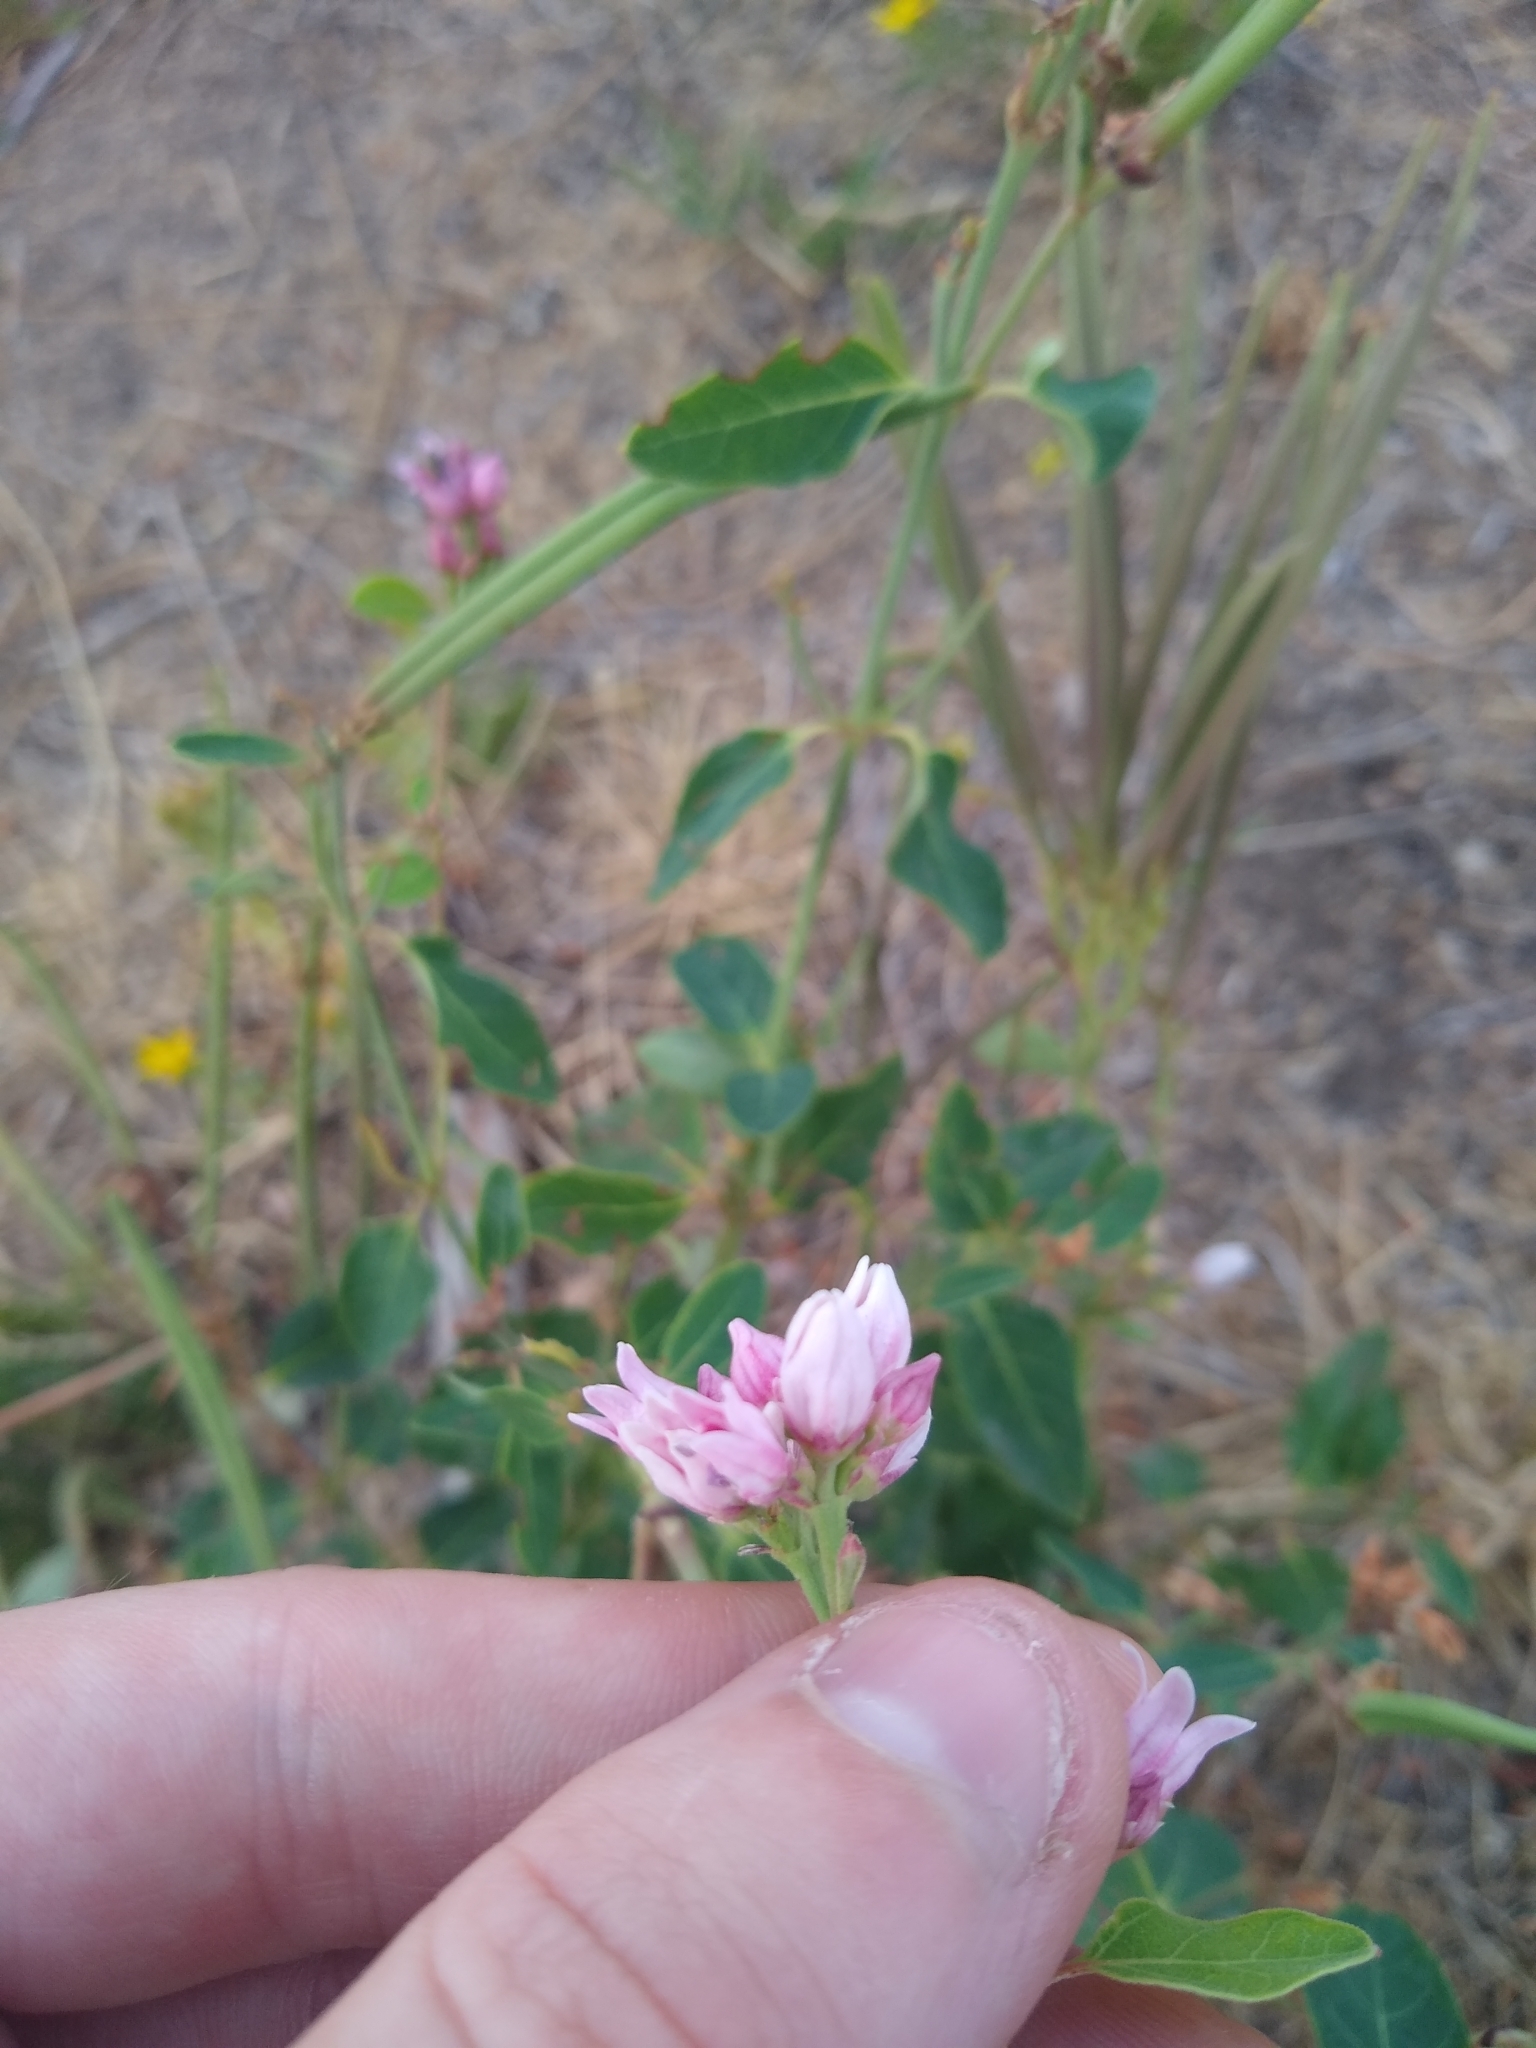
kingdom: Plantae
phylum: Tracheophyta
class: Magnoliopsida
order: Gentianales
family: Apocynaceae
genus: Apocynum
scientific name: Apocynum androsaemifolium
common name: Spreading dogbane
